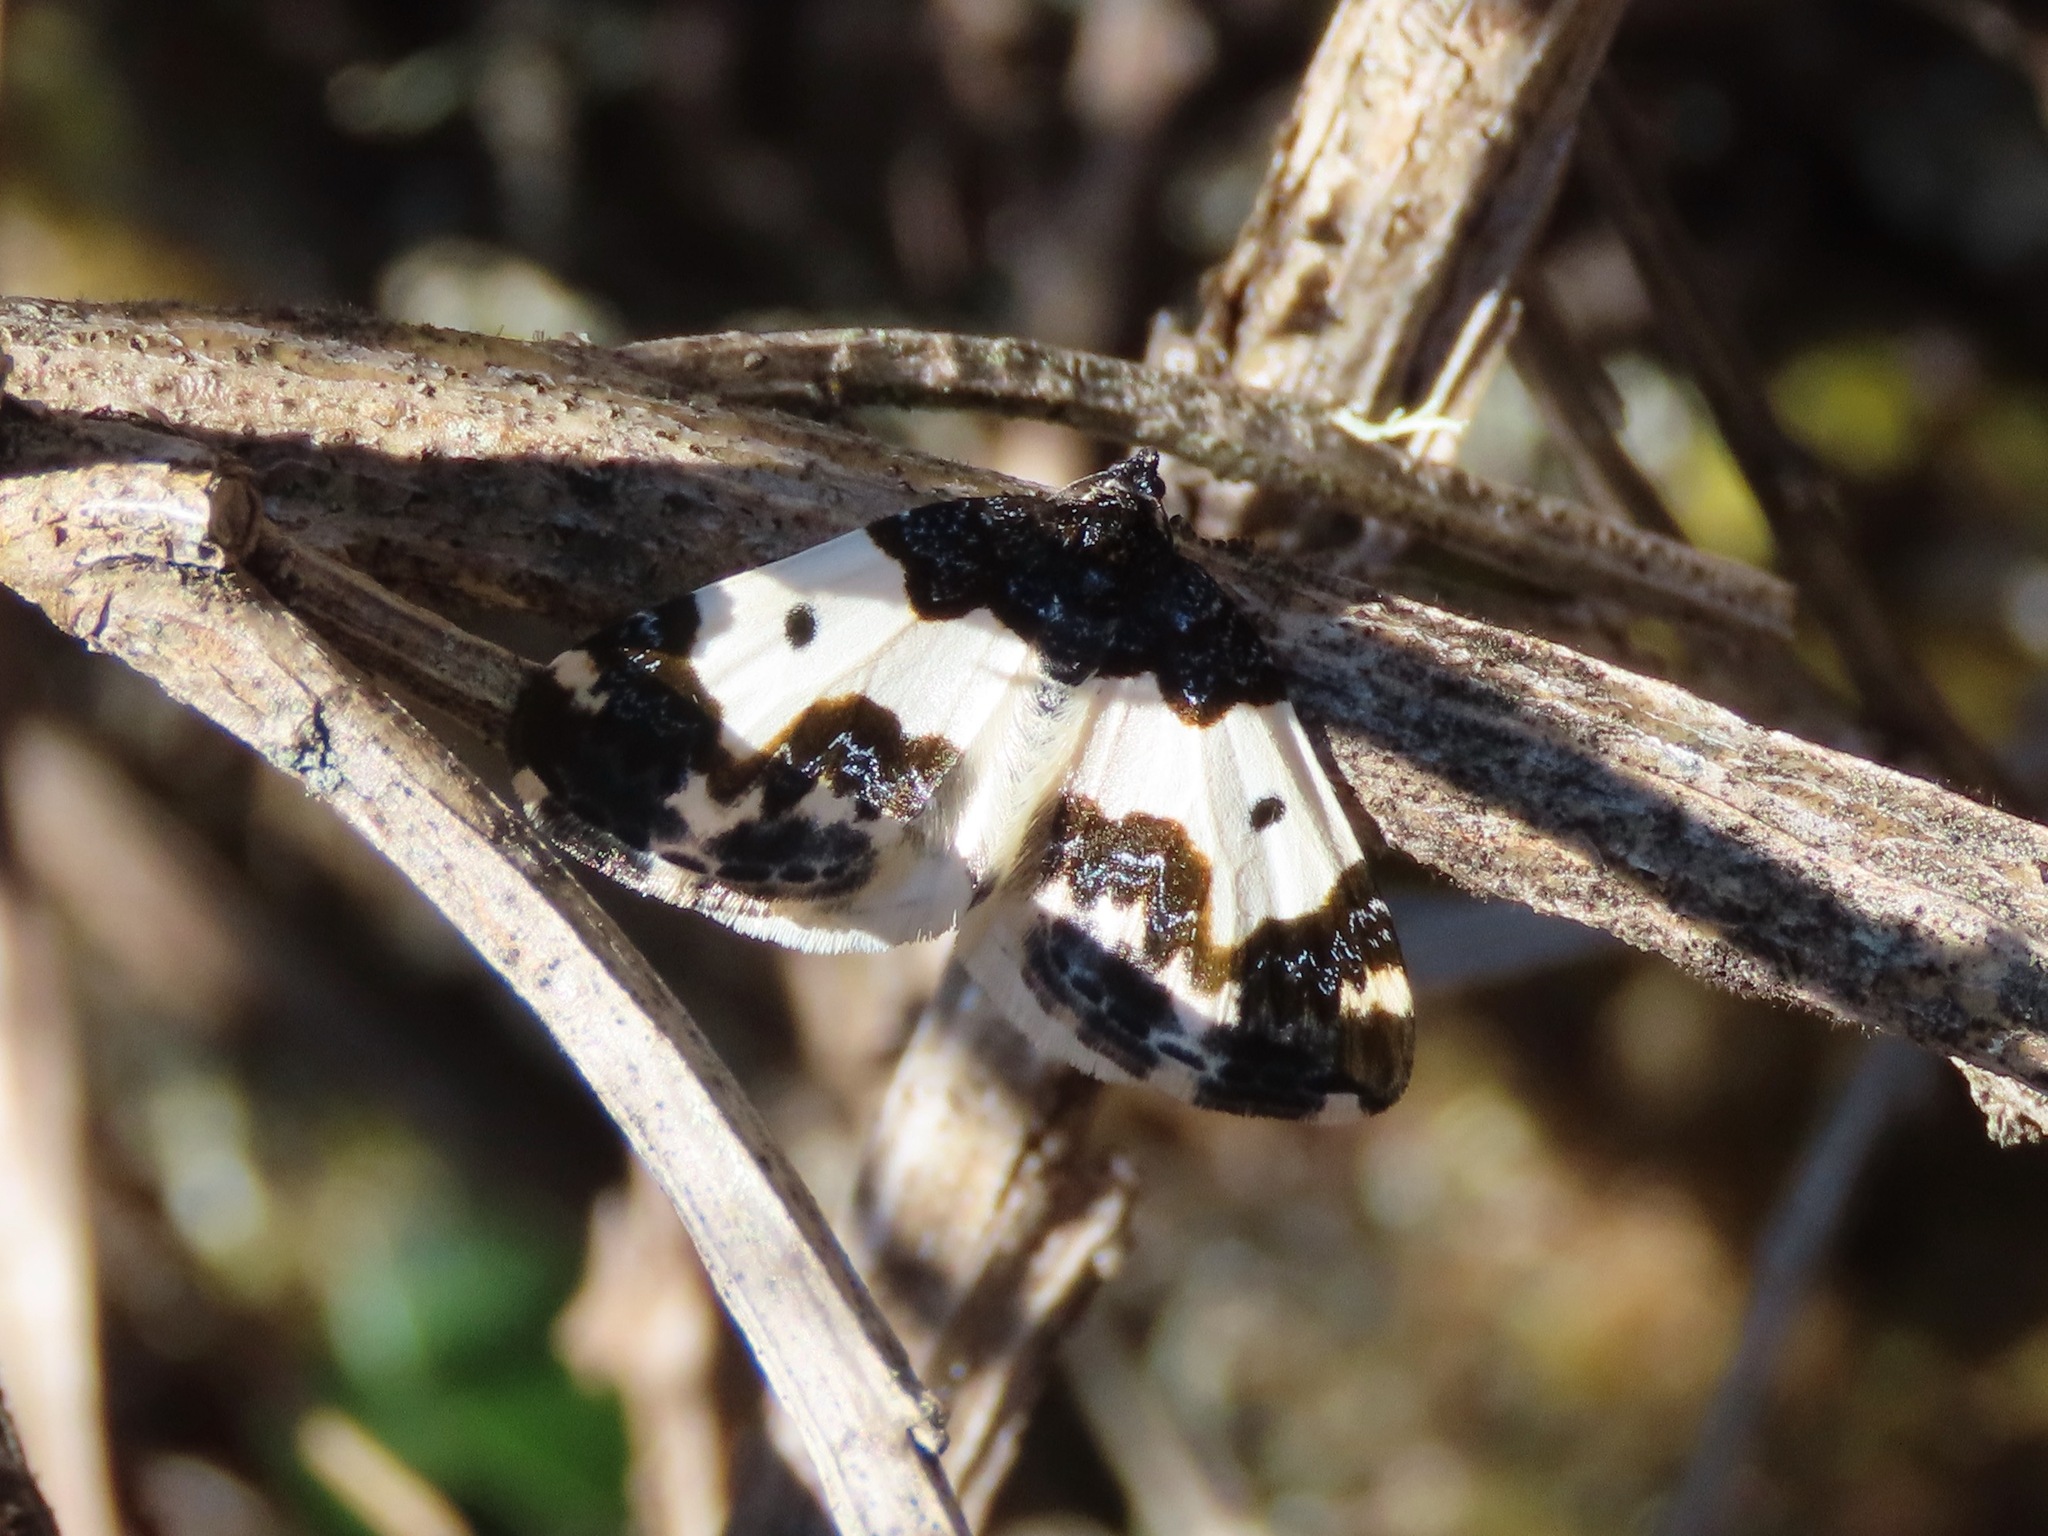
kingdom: Animalia
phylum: Arthropoda
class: Insecta
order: Lepidoptera
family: Geometridae
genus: Mesoleuca
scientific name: Mesoleuca gratulata
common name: Half-white carpet moth
